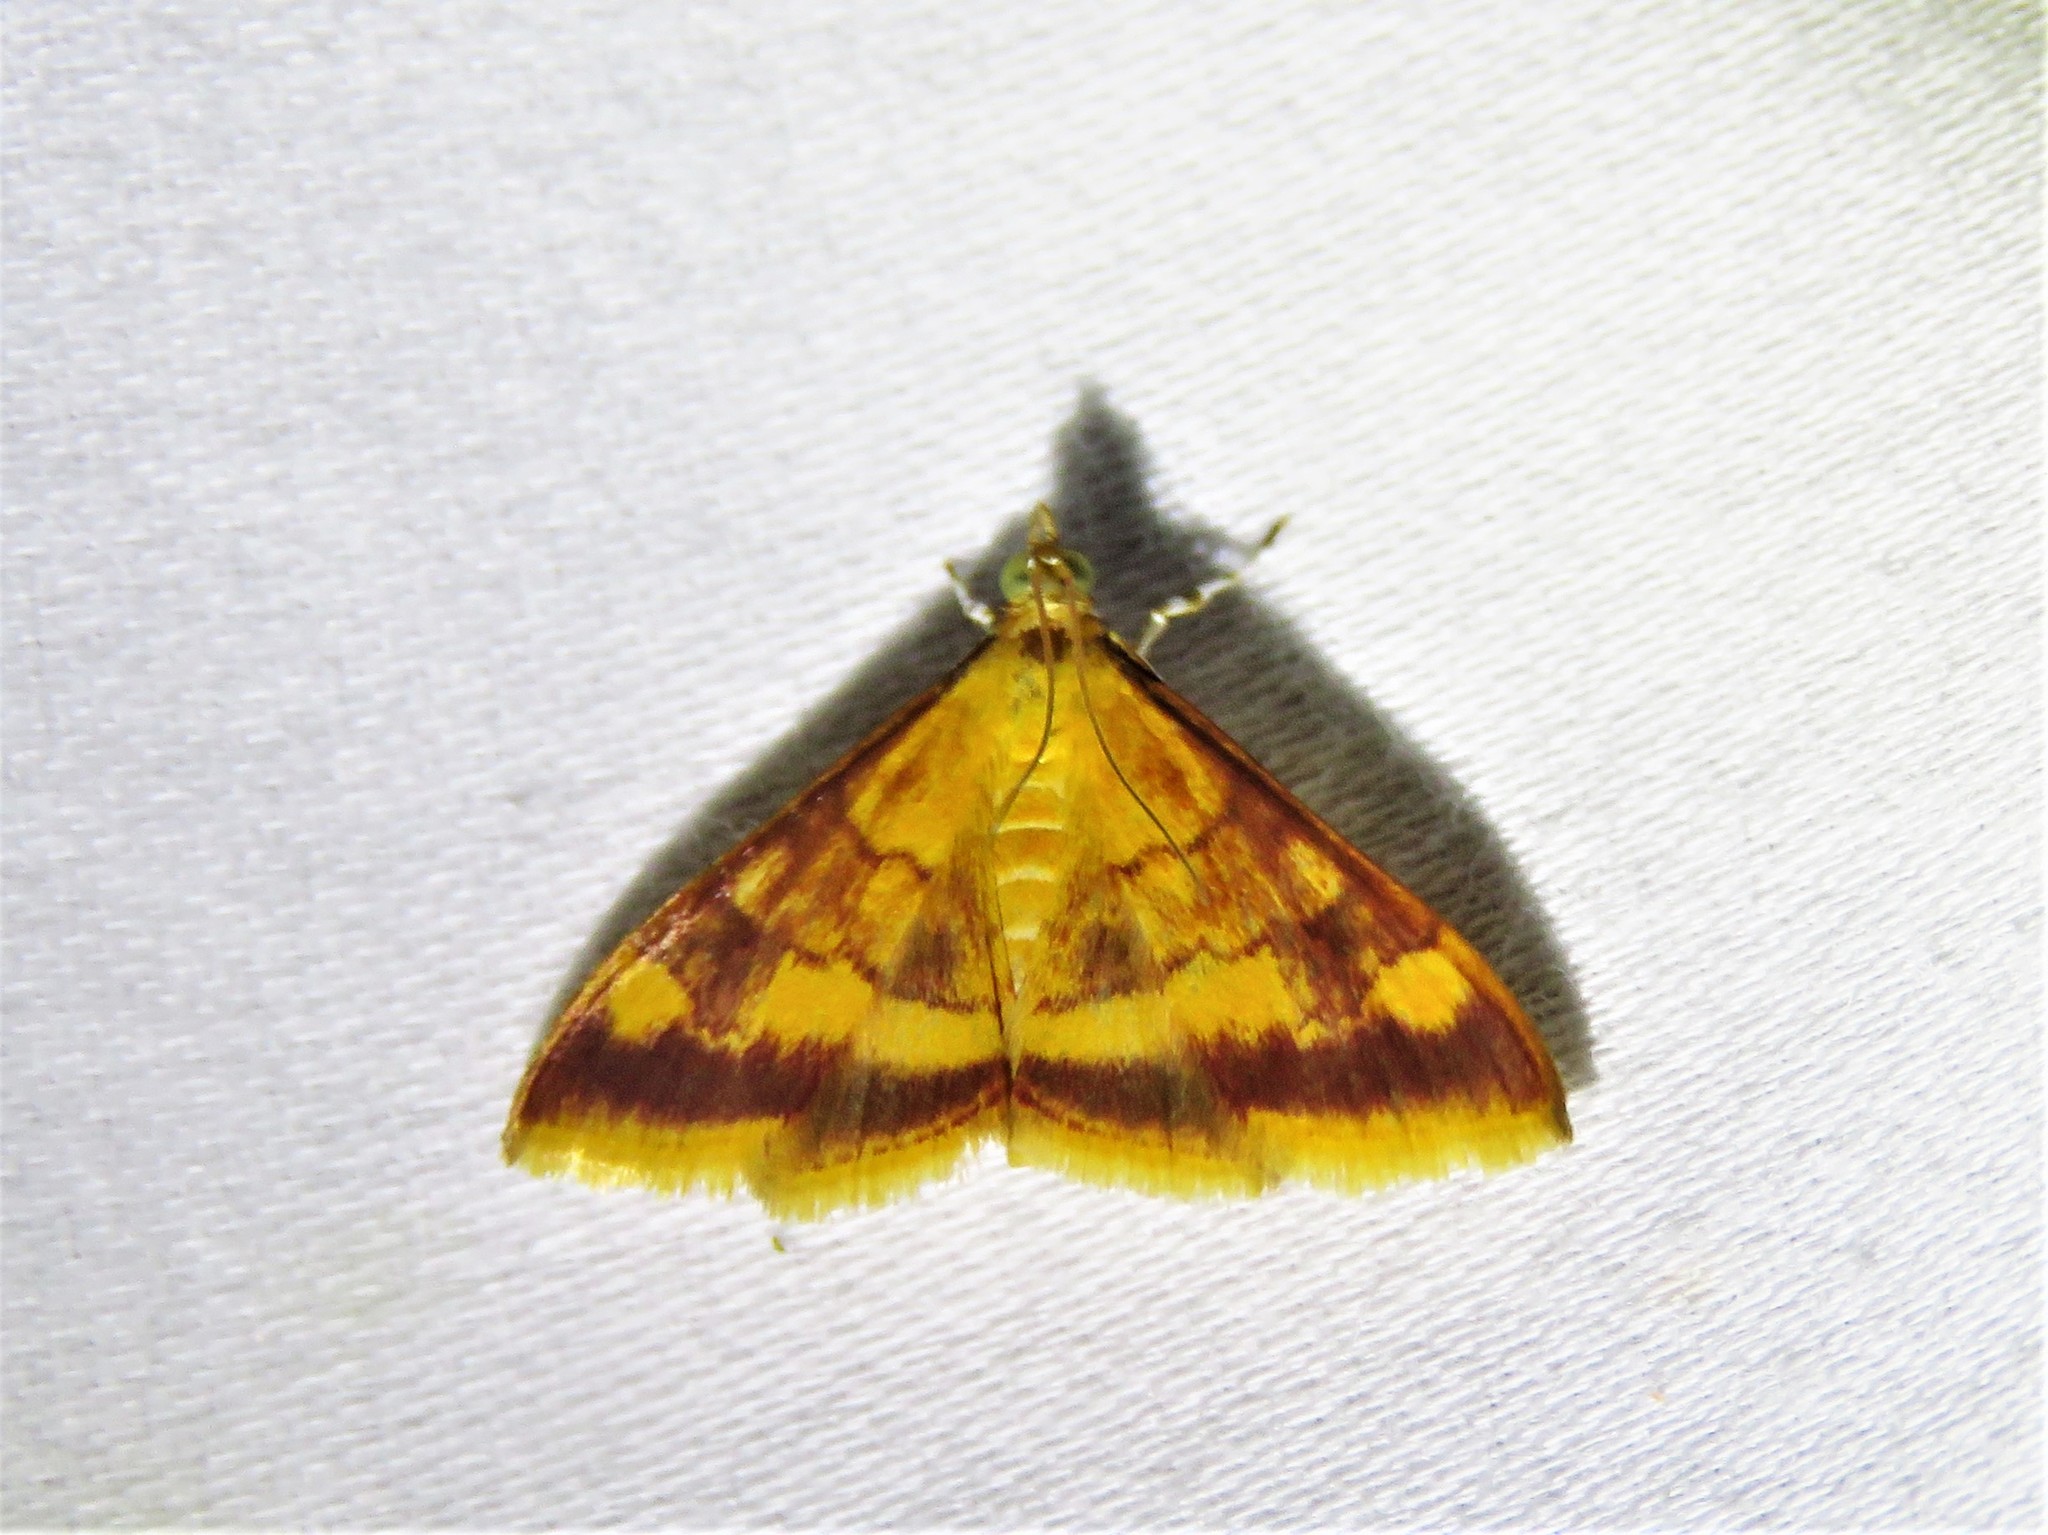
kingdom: Animalia
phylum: Arthropoda
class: Insecta
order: Lepidoptera
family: Crambidae
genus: Pyrausta
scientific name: Pyrausta pseudonythesalis
